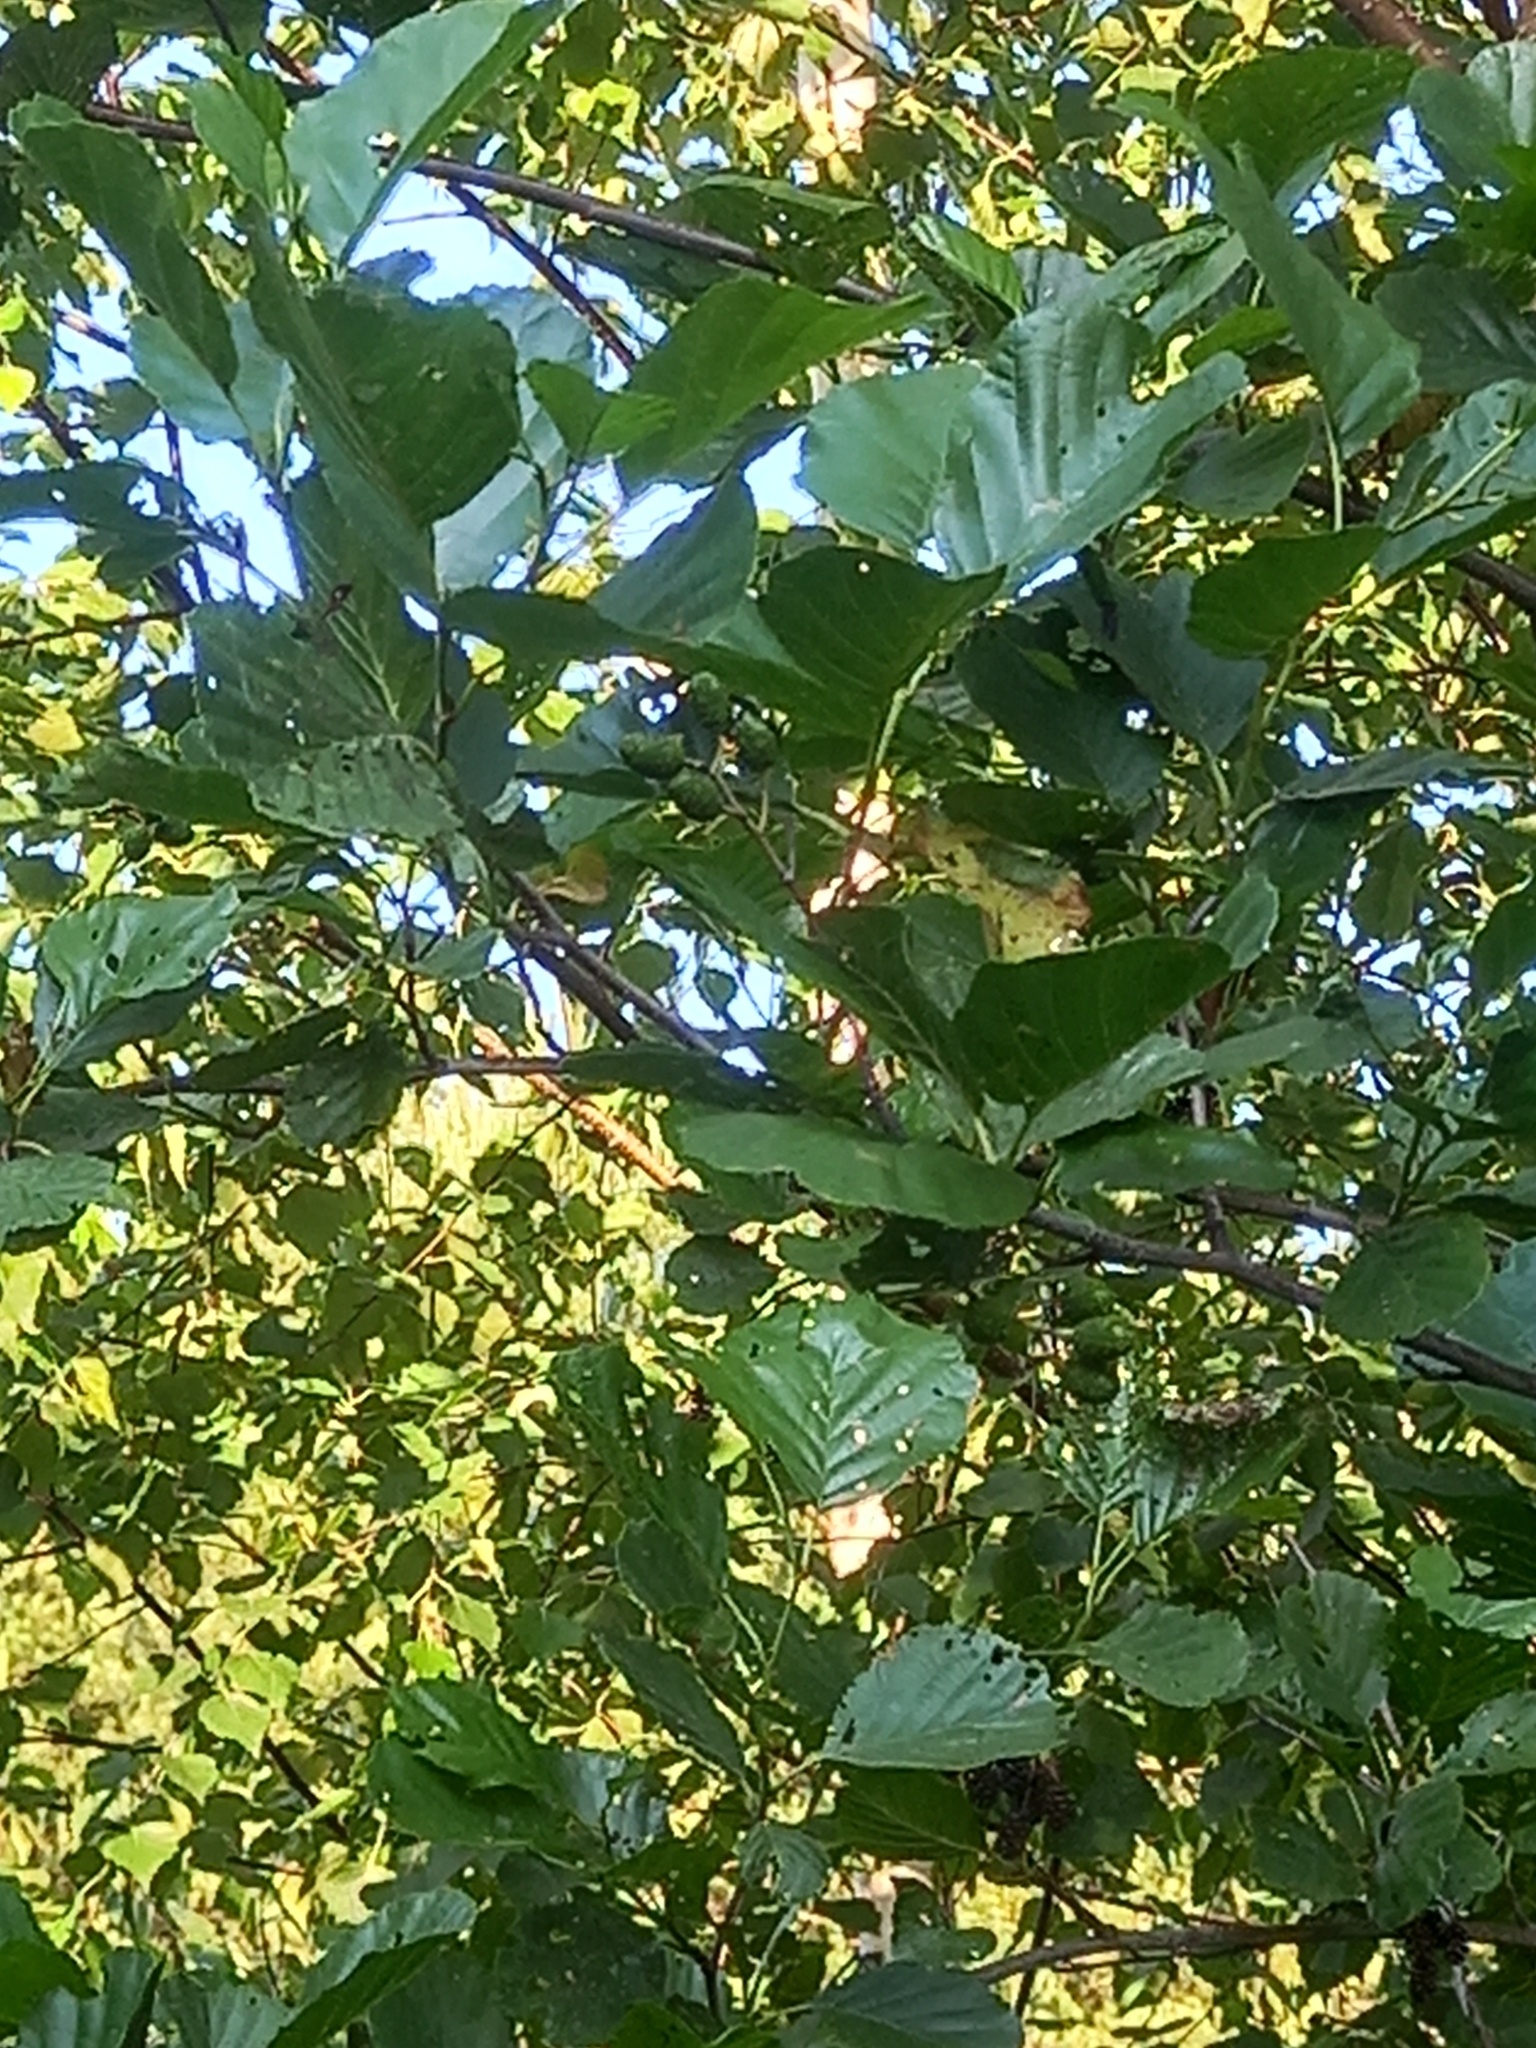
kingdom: Plantae
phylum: Tracheophyta
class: Magnoliopsida
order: Fagales
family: Betulaceae
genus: Alnus
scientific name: Alnus glutinosa
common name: Black alder
